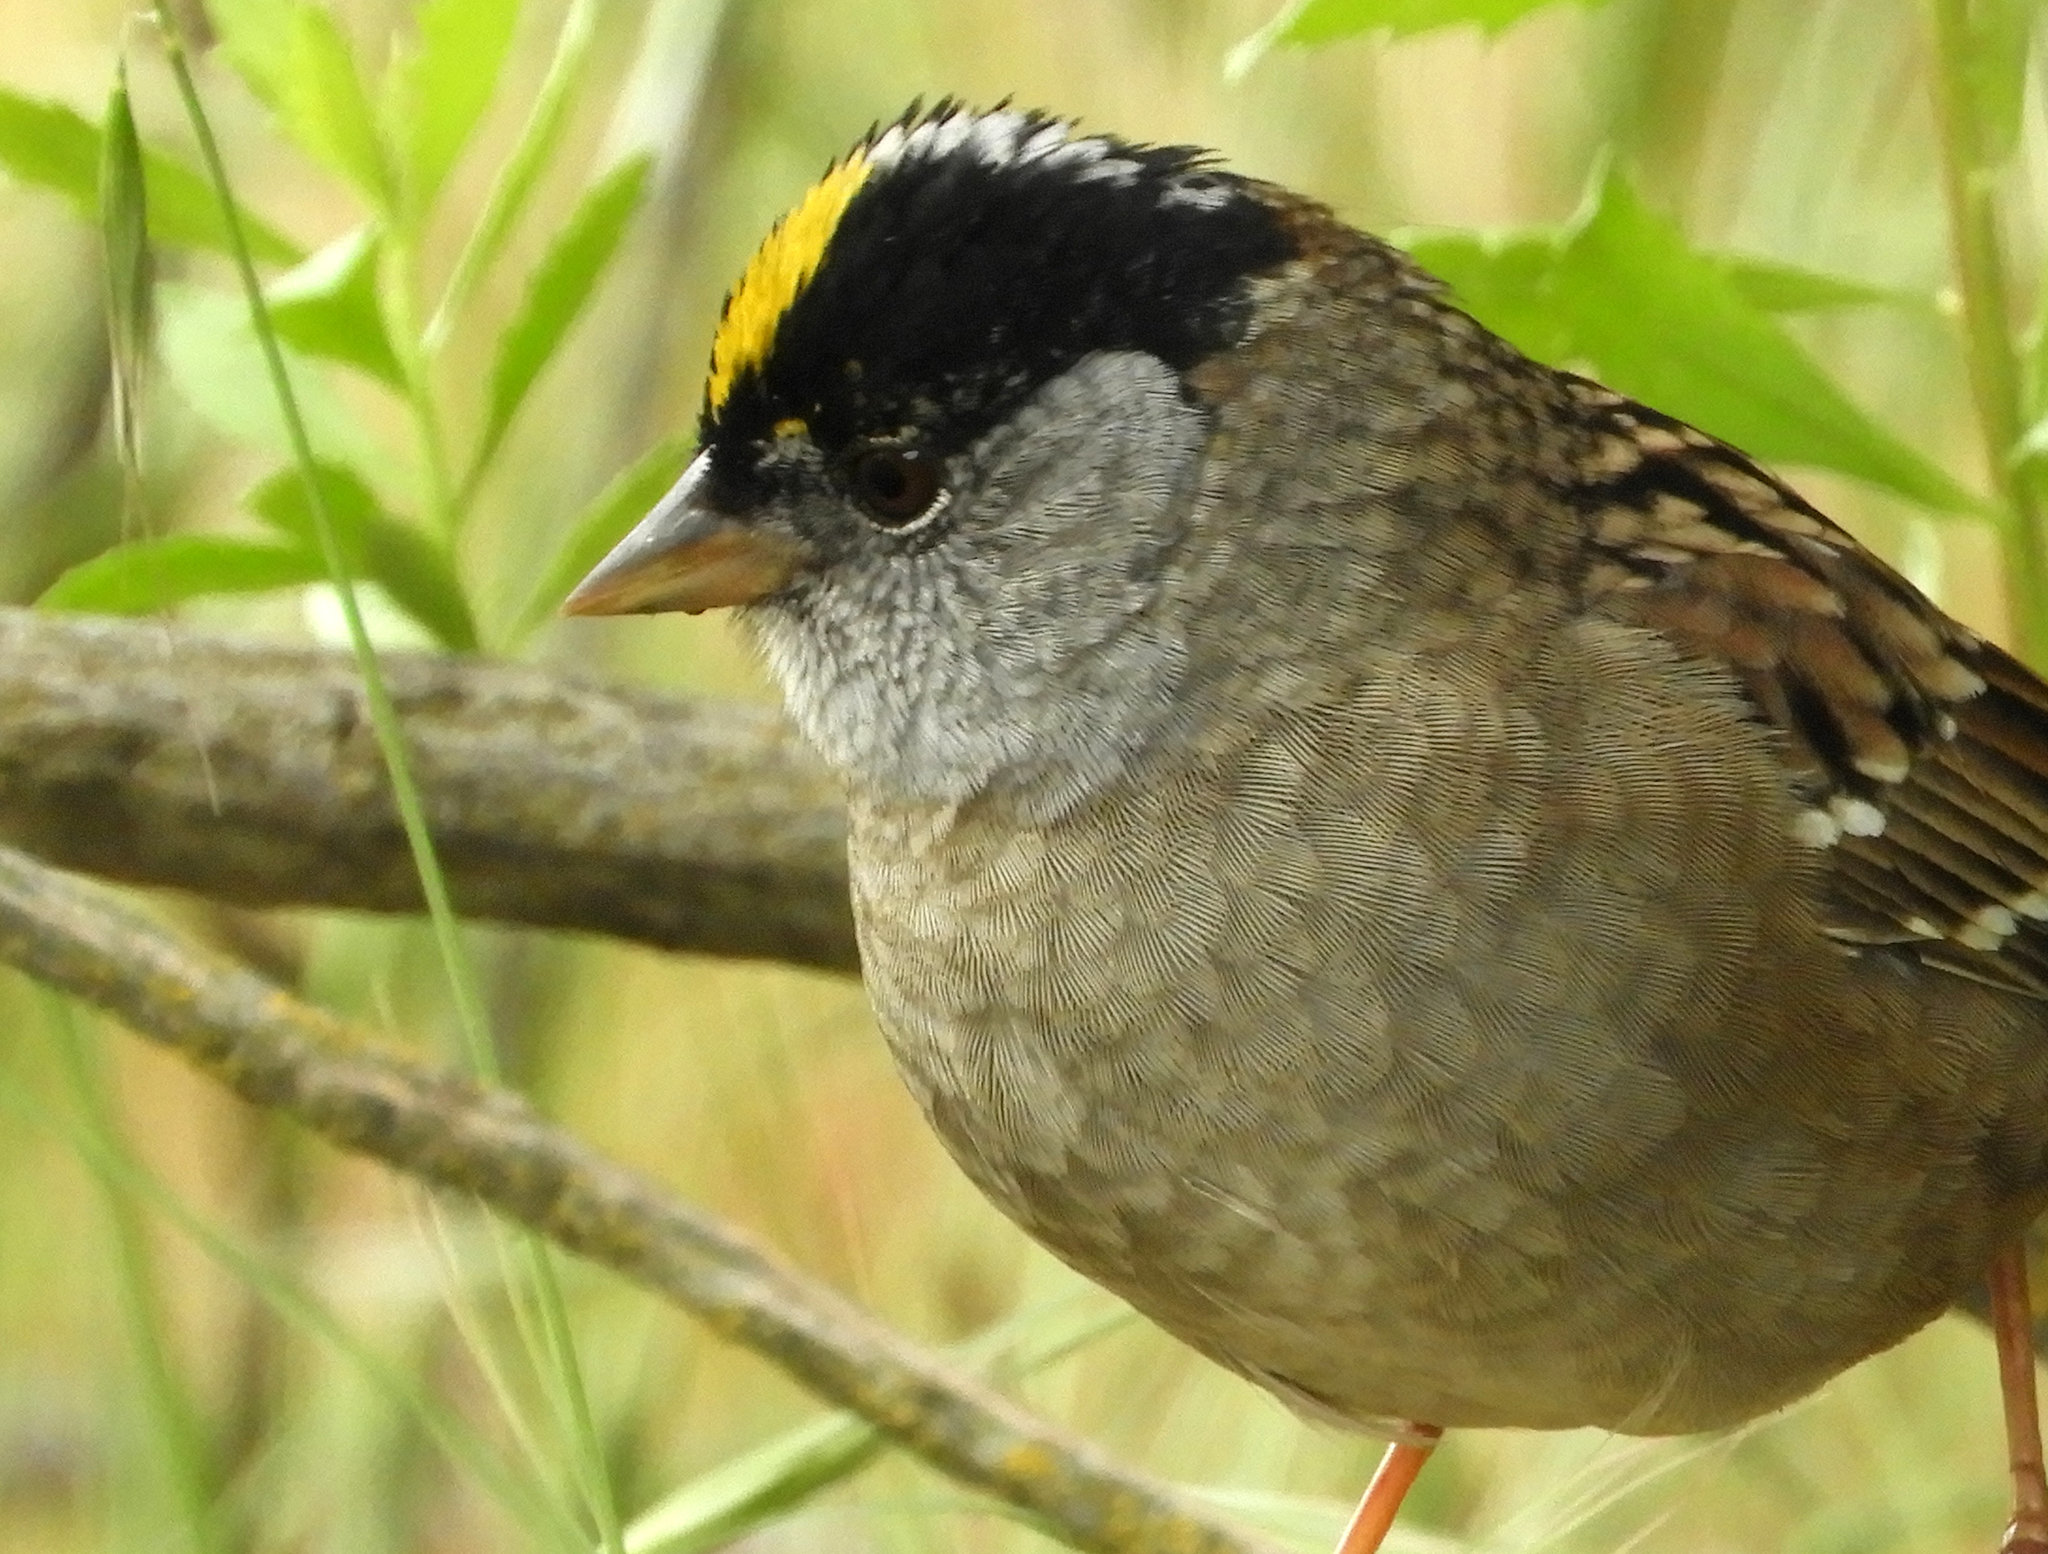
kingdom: Animalia
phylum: Chordata
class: Aves
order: Passeriformes
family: Passerellidae
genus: Zonotrichia
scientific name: Zonotrichia atricapilla
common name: Golden-crowned sparrow
